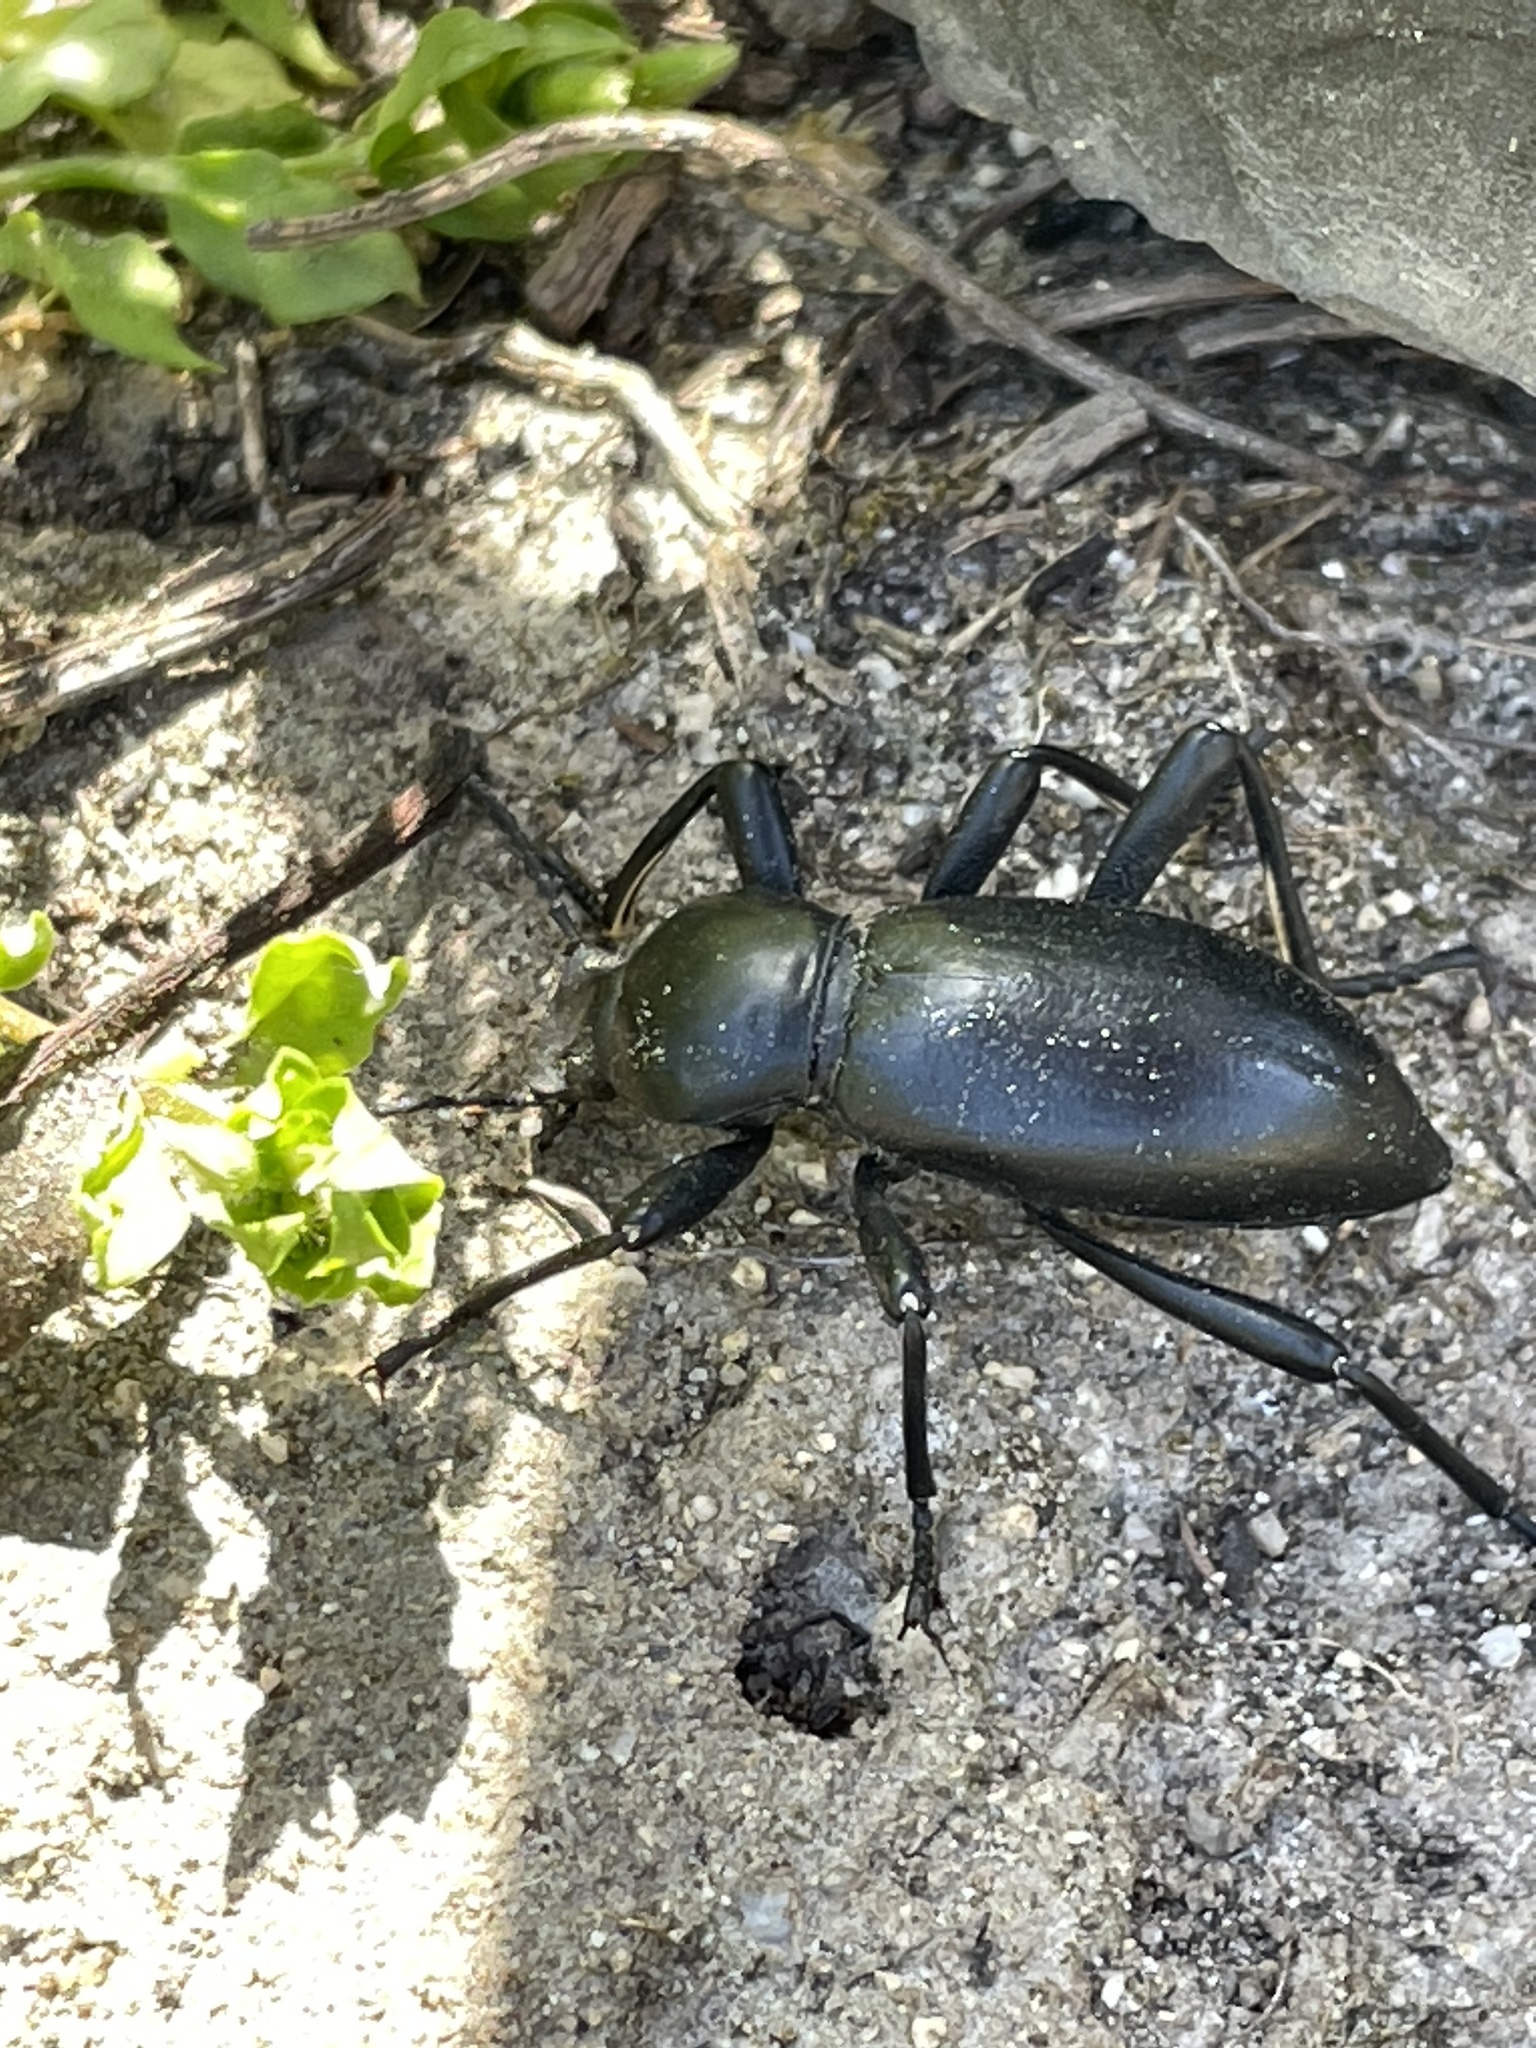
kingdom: Animalia
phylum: Arthropoda
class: Insecta
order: Coleoptera
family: Tenebrionidae
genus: Coelocnemis
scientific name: Coelocnemis magna
